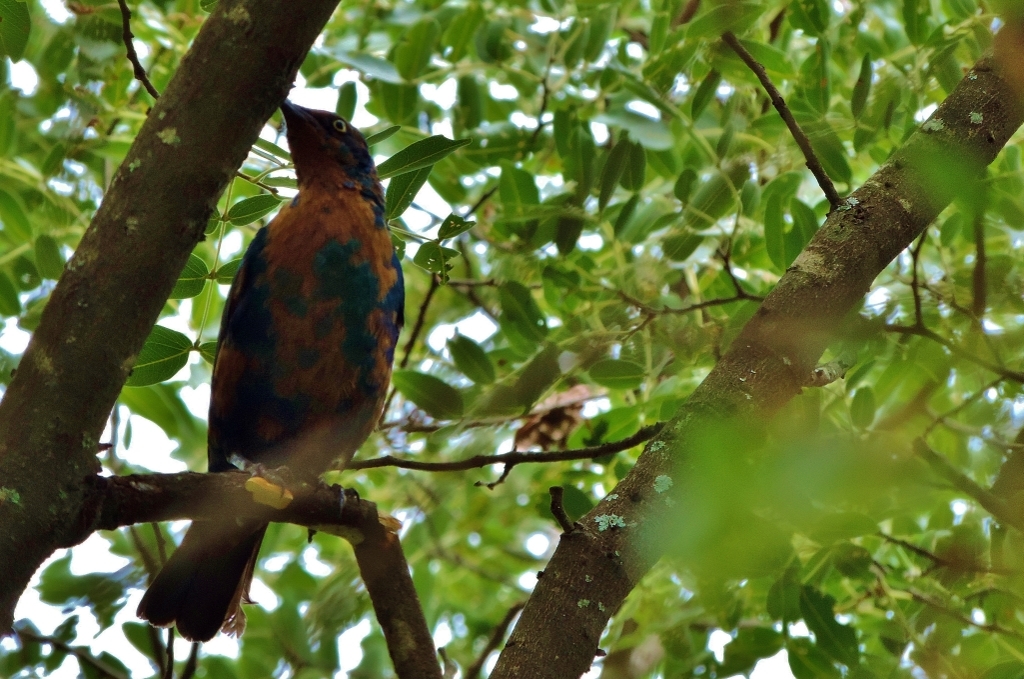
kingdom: Animalia
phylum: Chordata
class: Aves
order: Passeriformes
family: Sturnidae
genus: Lamprotornis
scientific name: Lamprotornis chloropterus
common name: Lesser blue-eared starling
